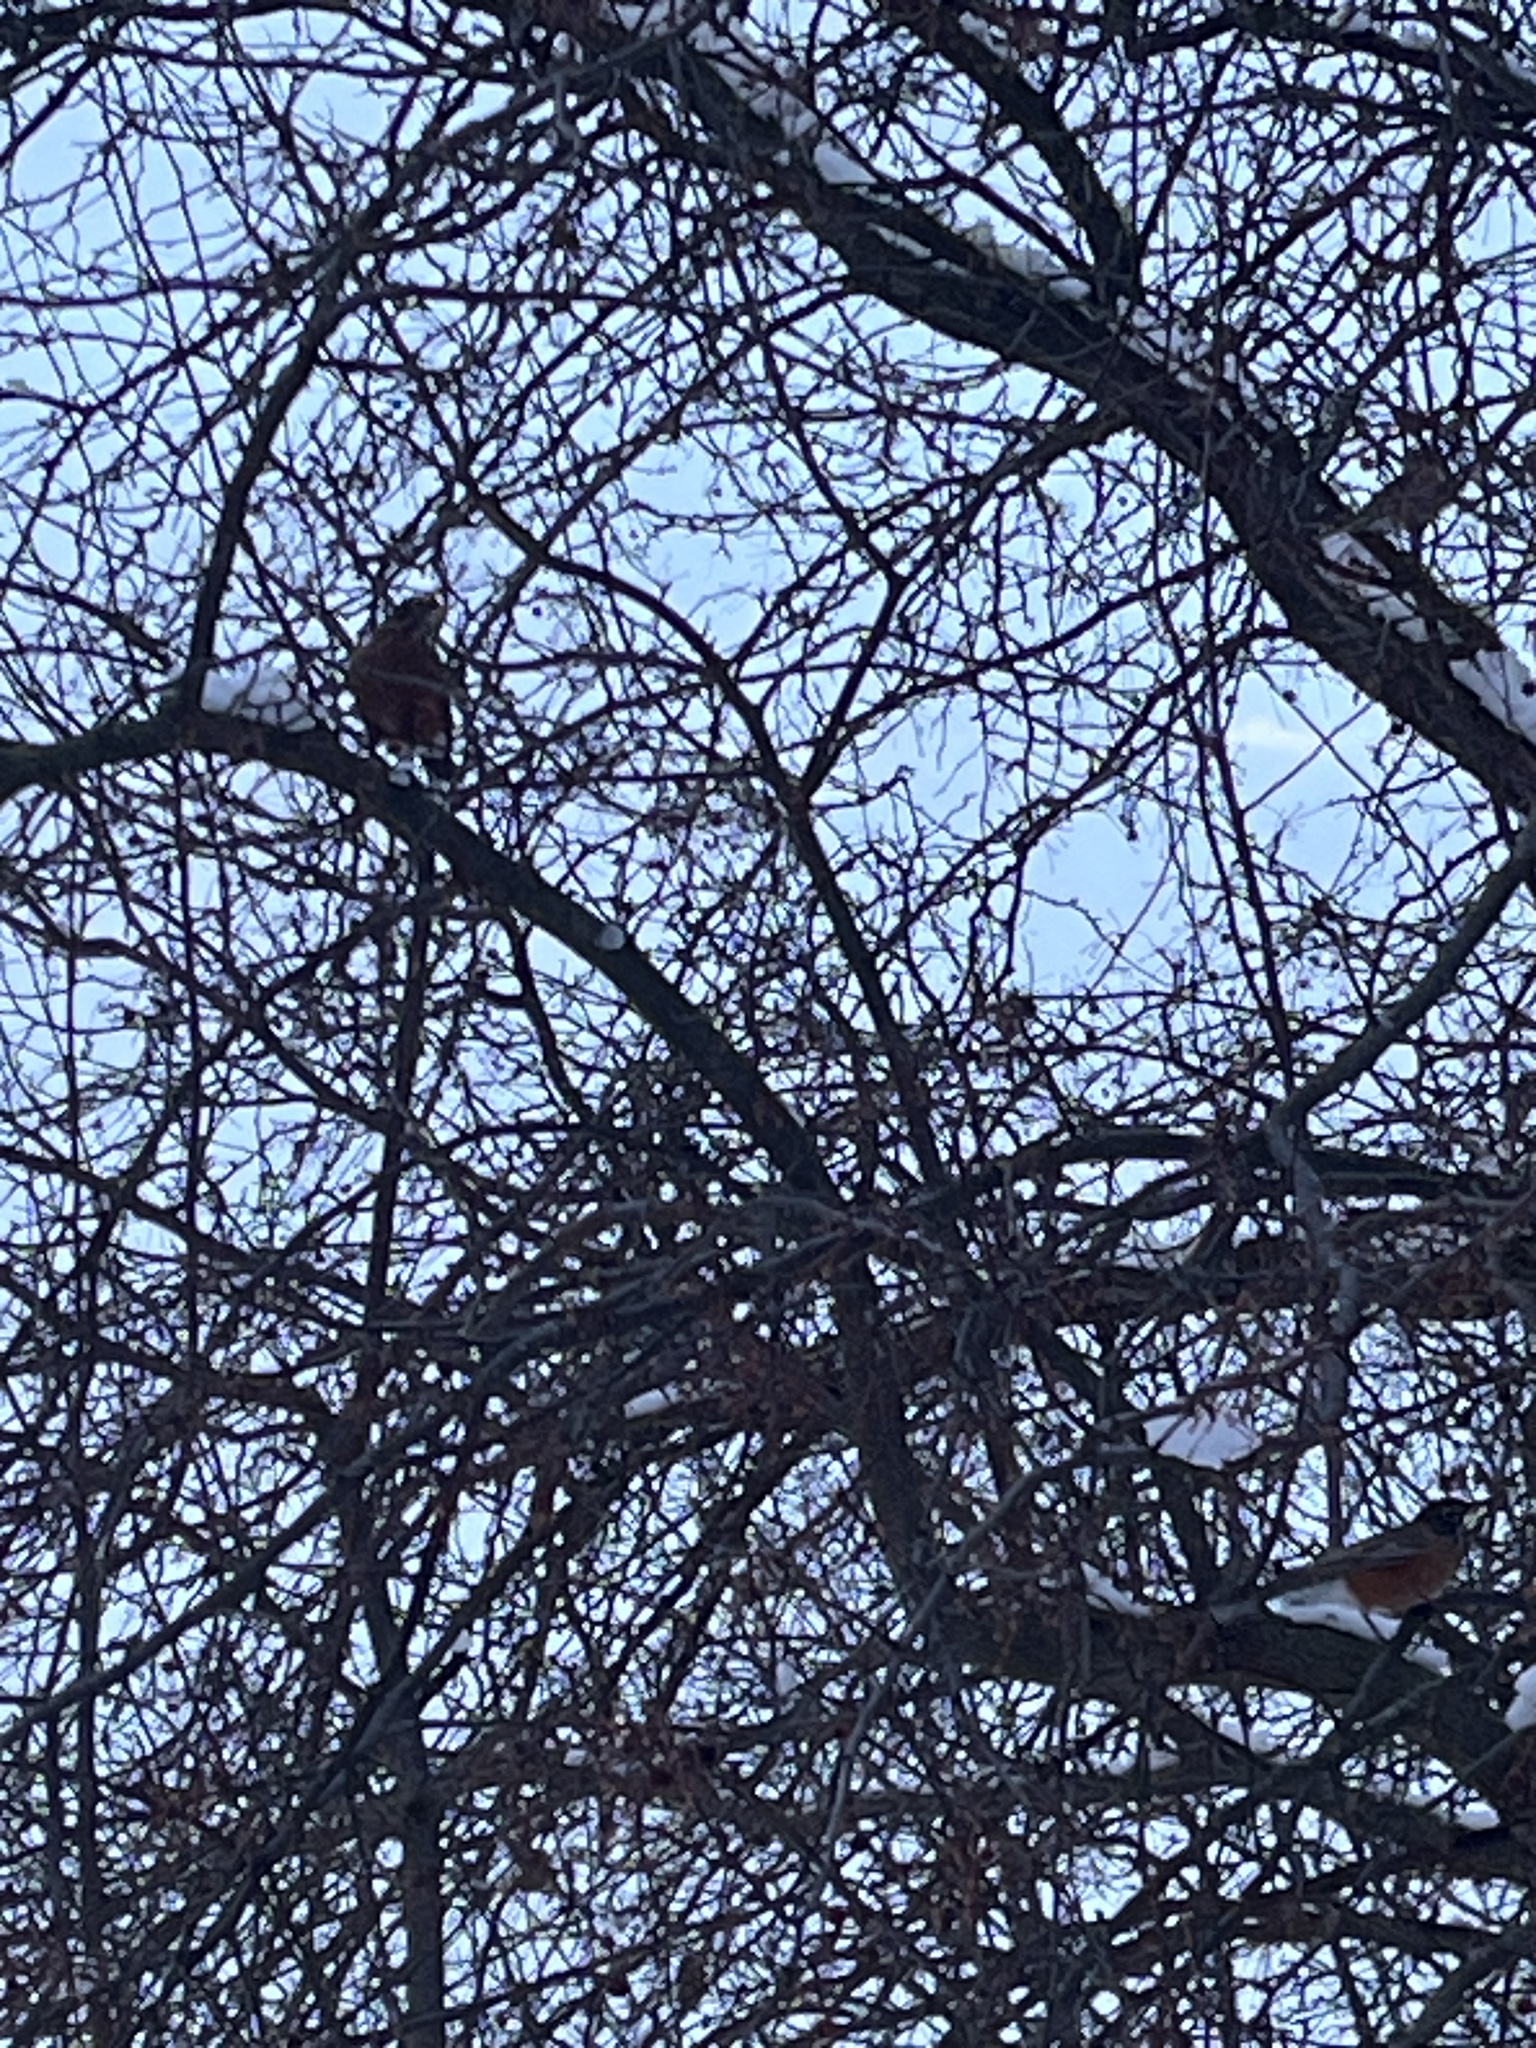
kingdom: Animalia
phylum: Chordata
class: Aves
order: Passeriformes
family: Turdidae
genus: Turdus
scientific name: Turdus migratorius
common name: American robin
